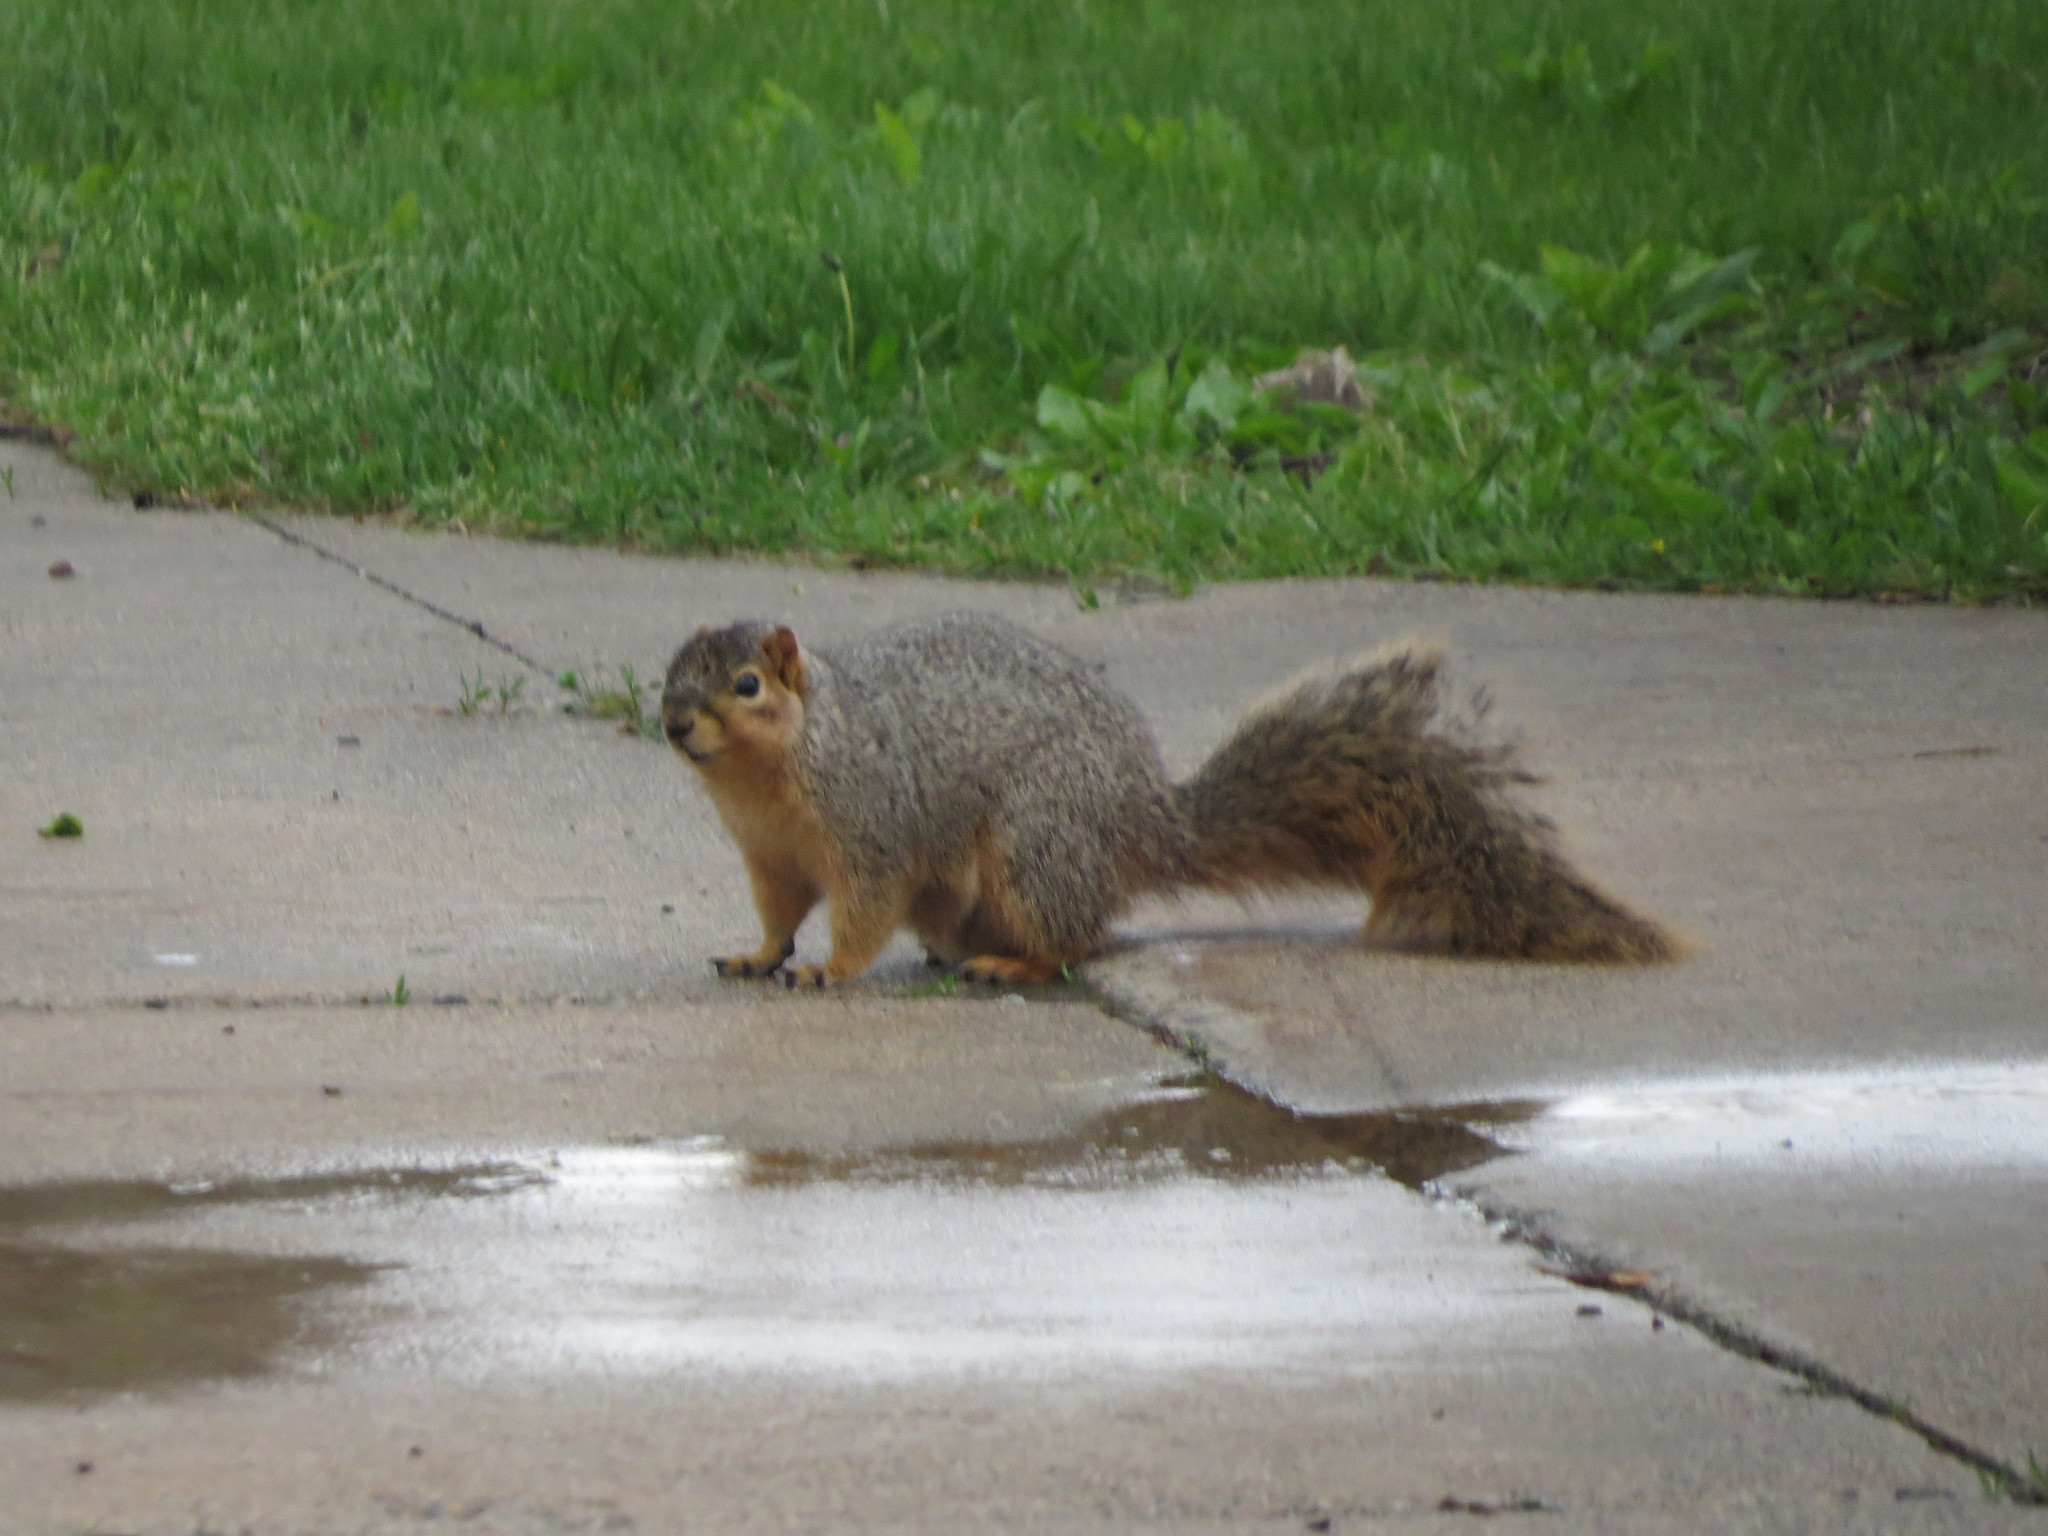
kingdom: Animalia
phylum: Chordata
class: Mammalia
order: Rodentia
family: Sciuridae
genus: Sciurus
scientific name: Sciurus niger
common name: Fox squirrel
